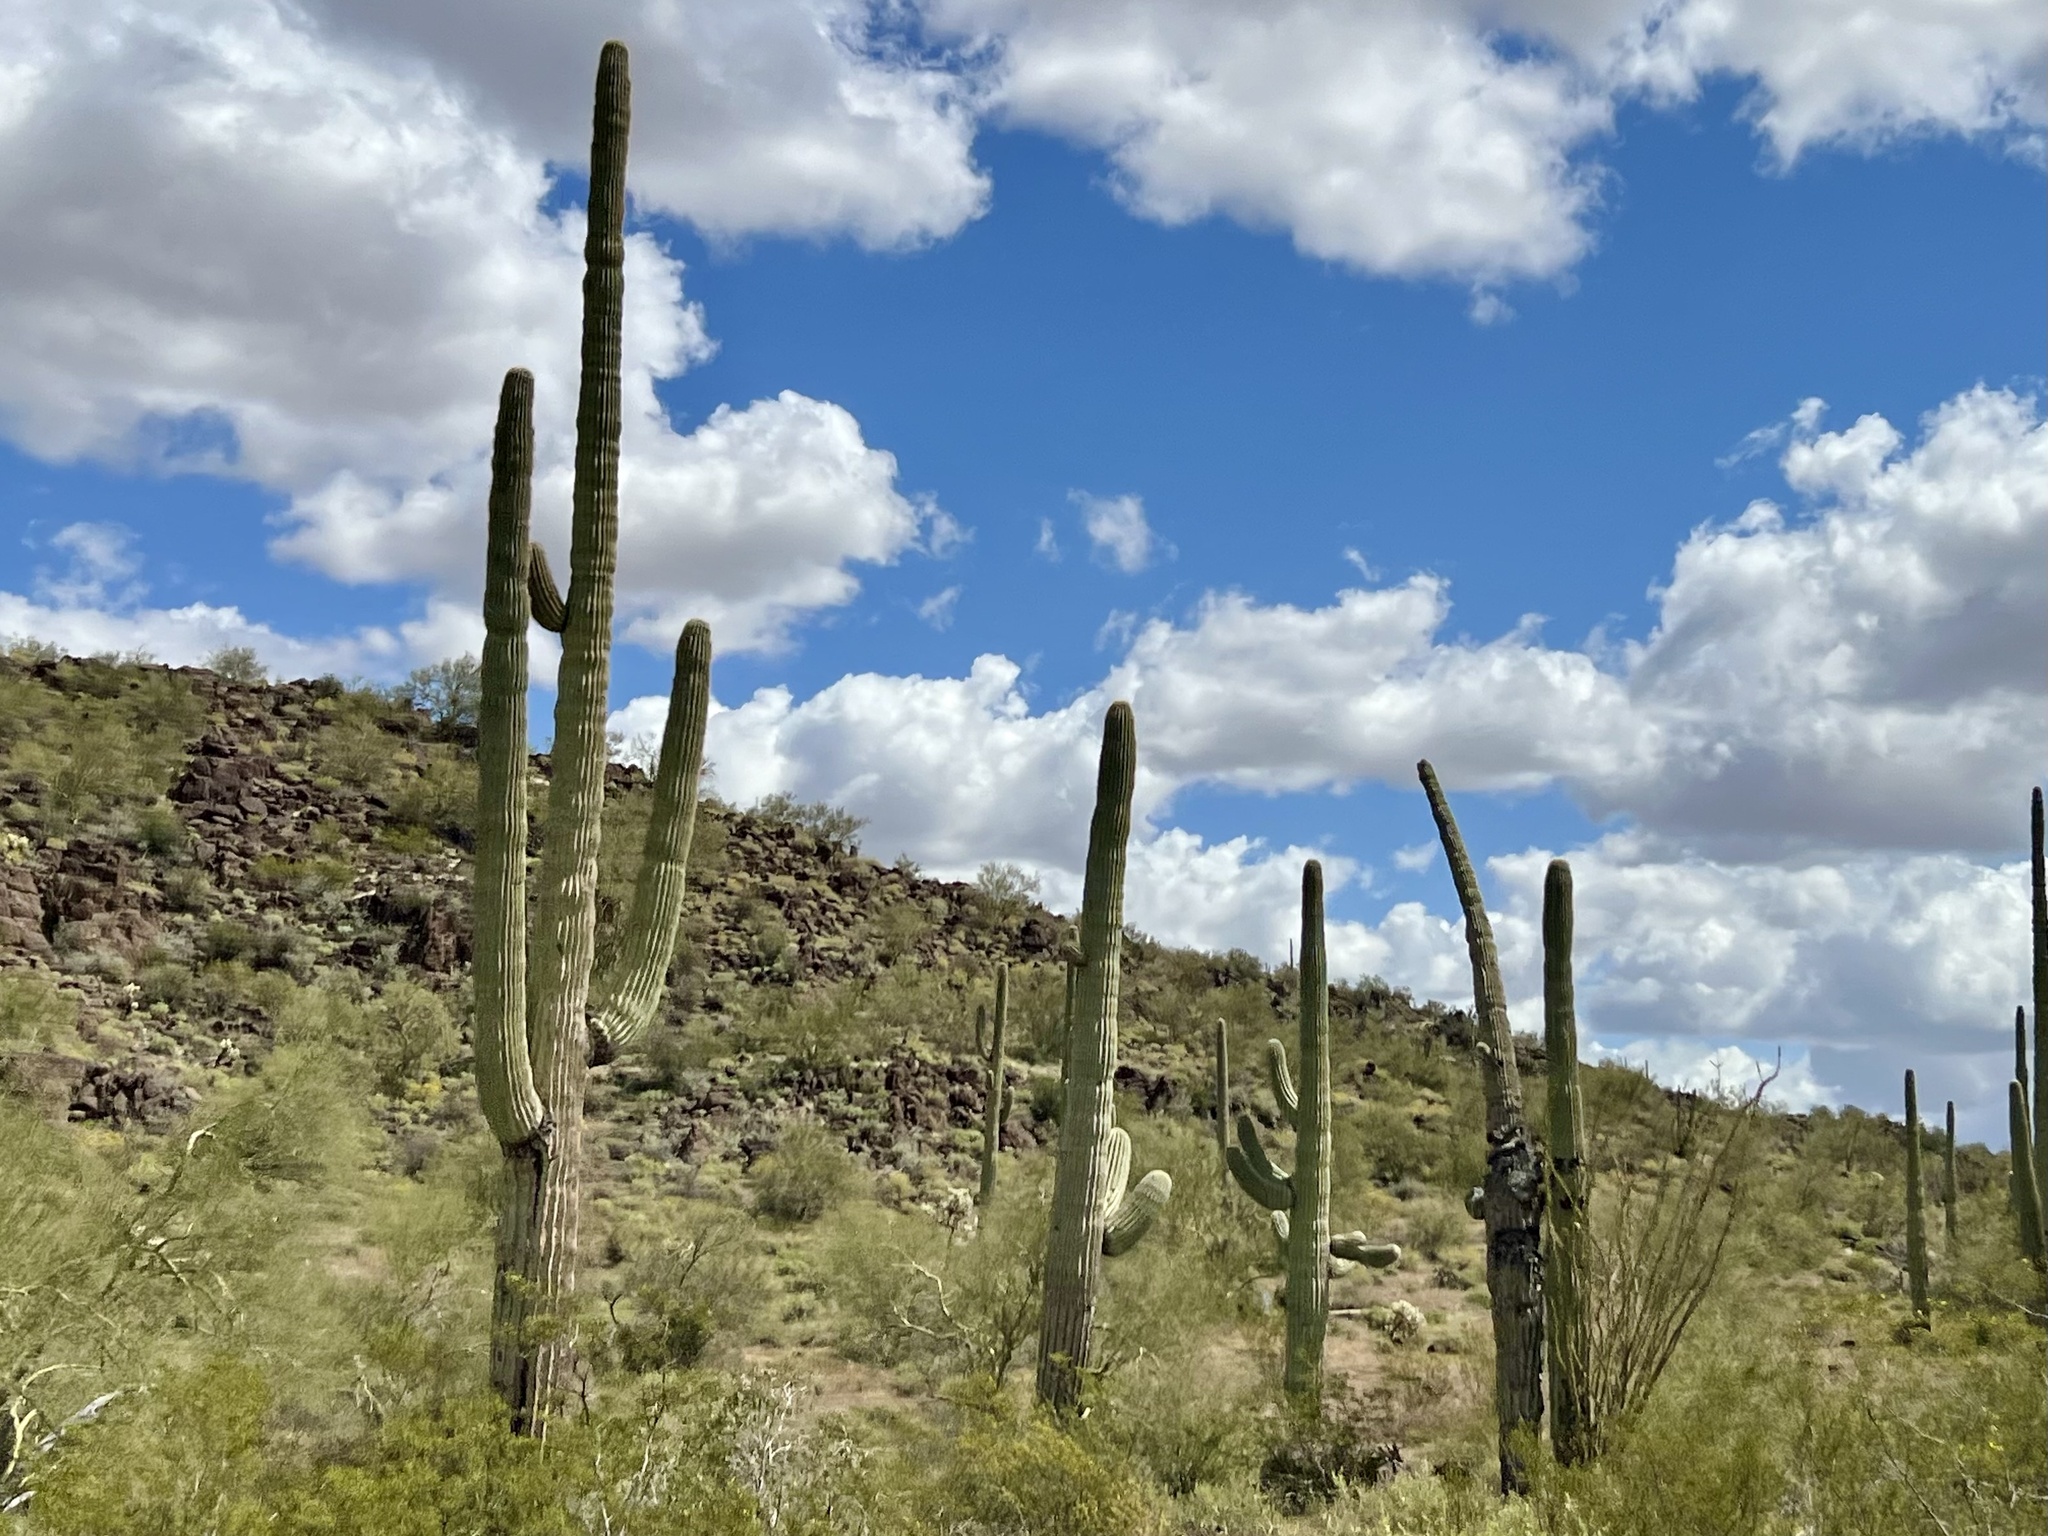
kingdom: Plantae
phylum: Tracheophyta
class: Magnoliopsida
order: Caryophyllales
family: Cactaceae
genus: Carnegiea
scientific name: Carnegiea gigantea
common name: Saguaro
